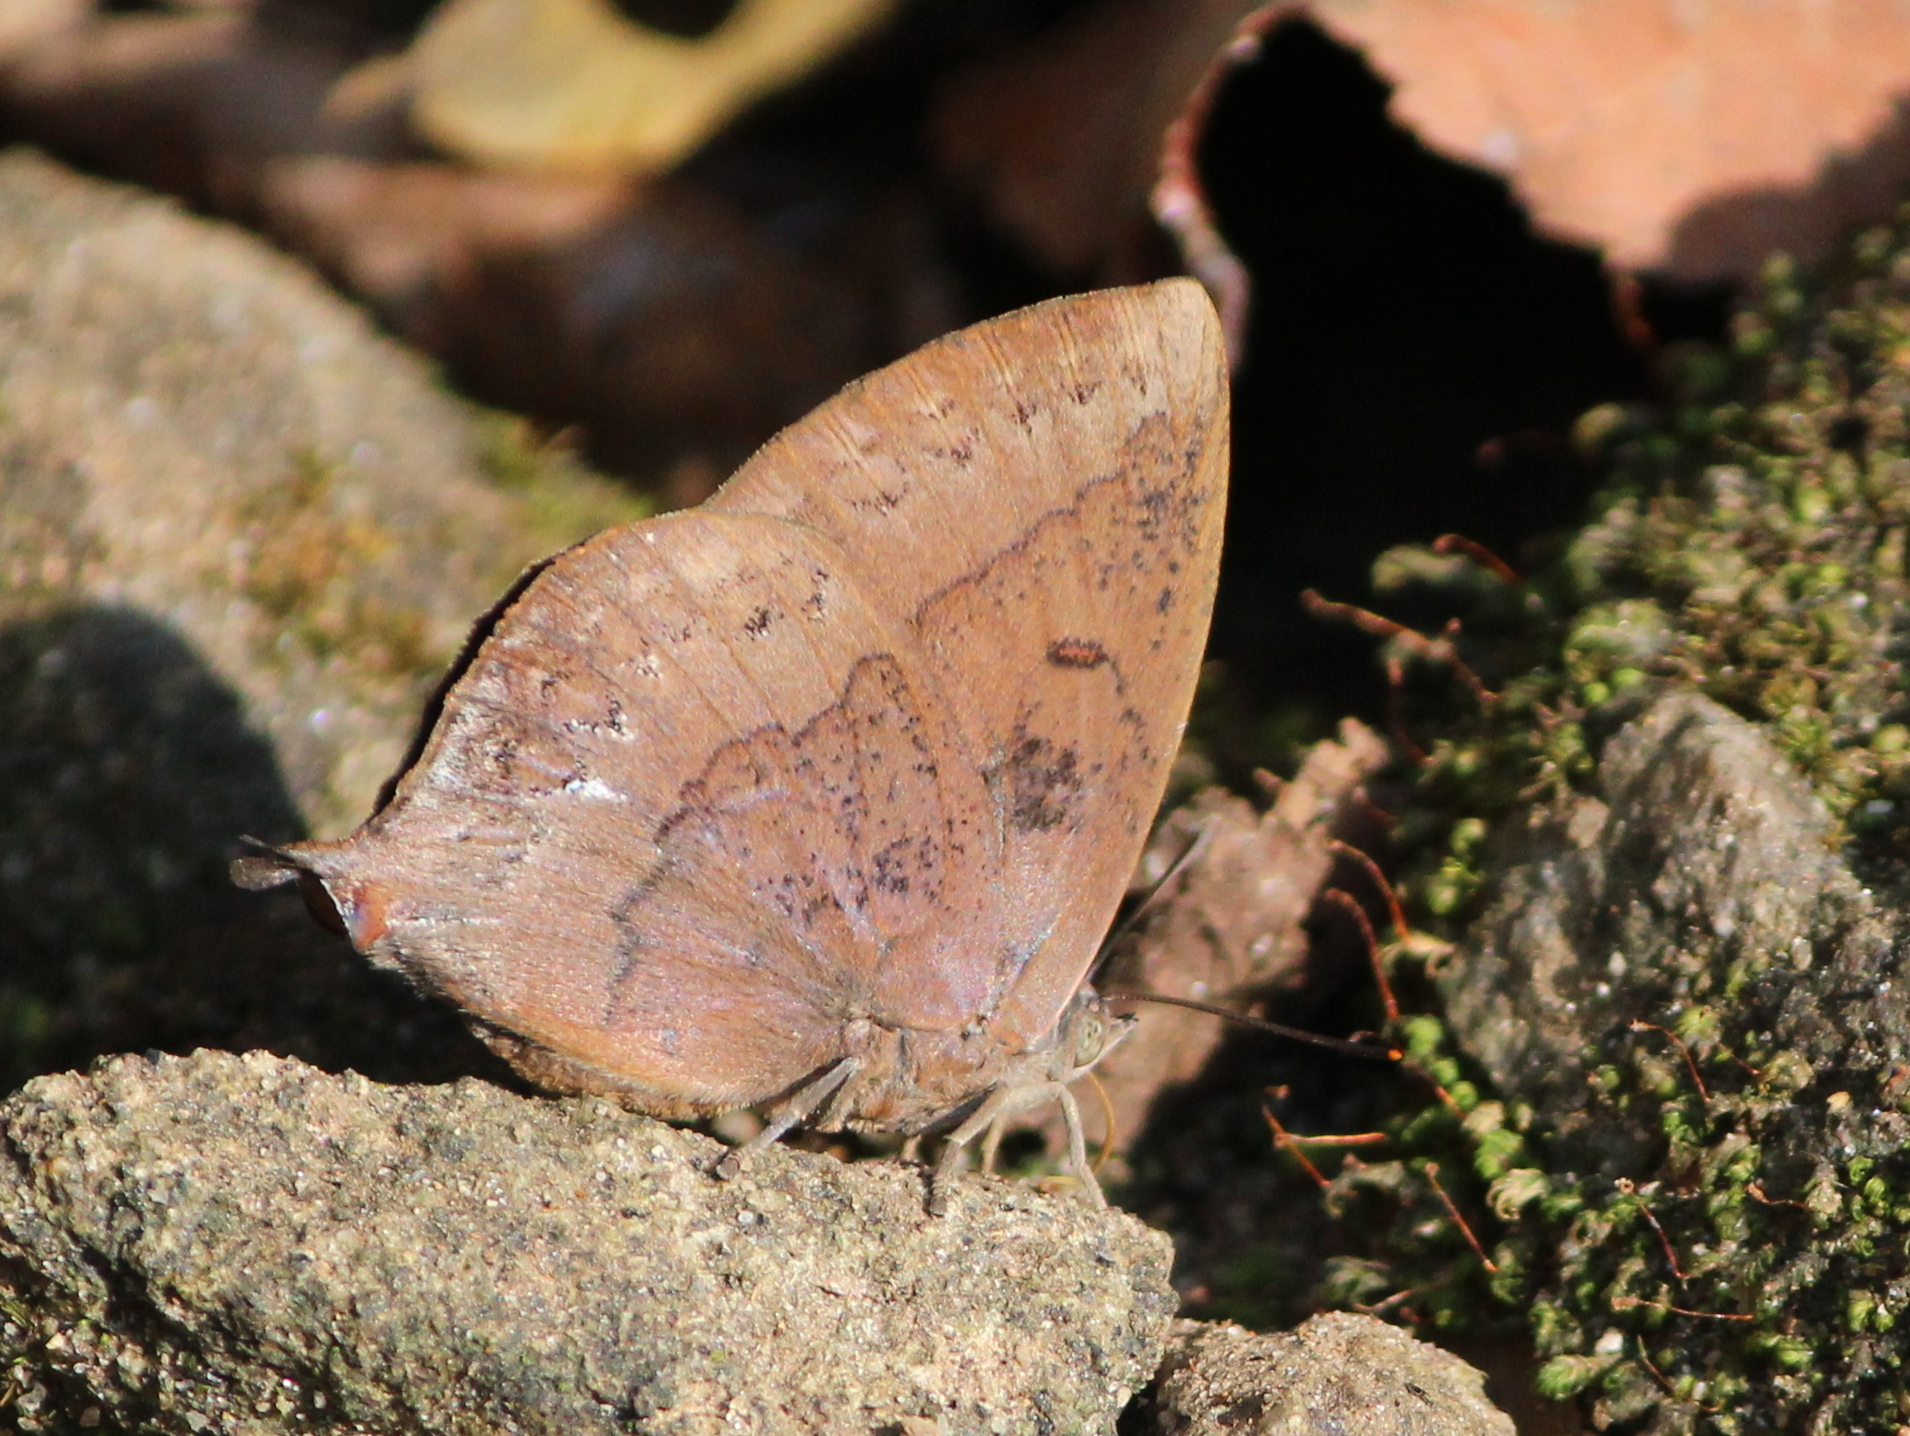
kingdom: Animalia
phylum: Arthropoda
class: Insecta
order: Lepidoptera
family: Lycaenidae
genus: Amblypodia
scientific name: Amblypodia anita
